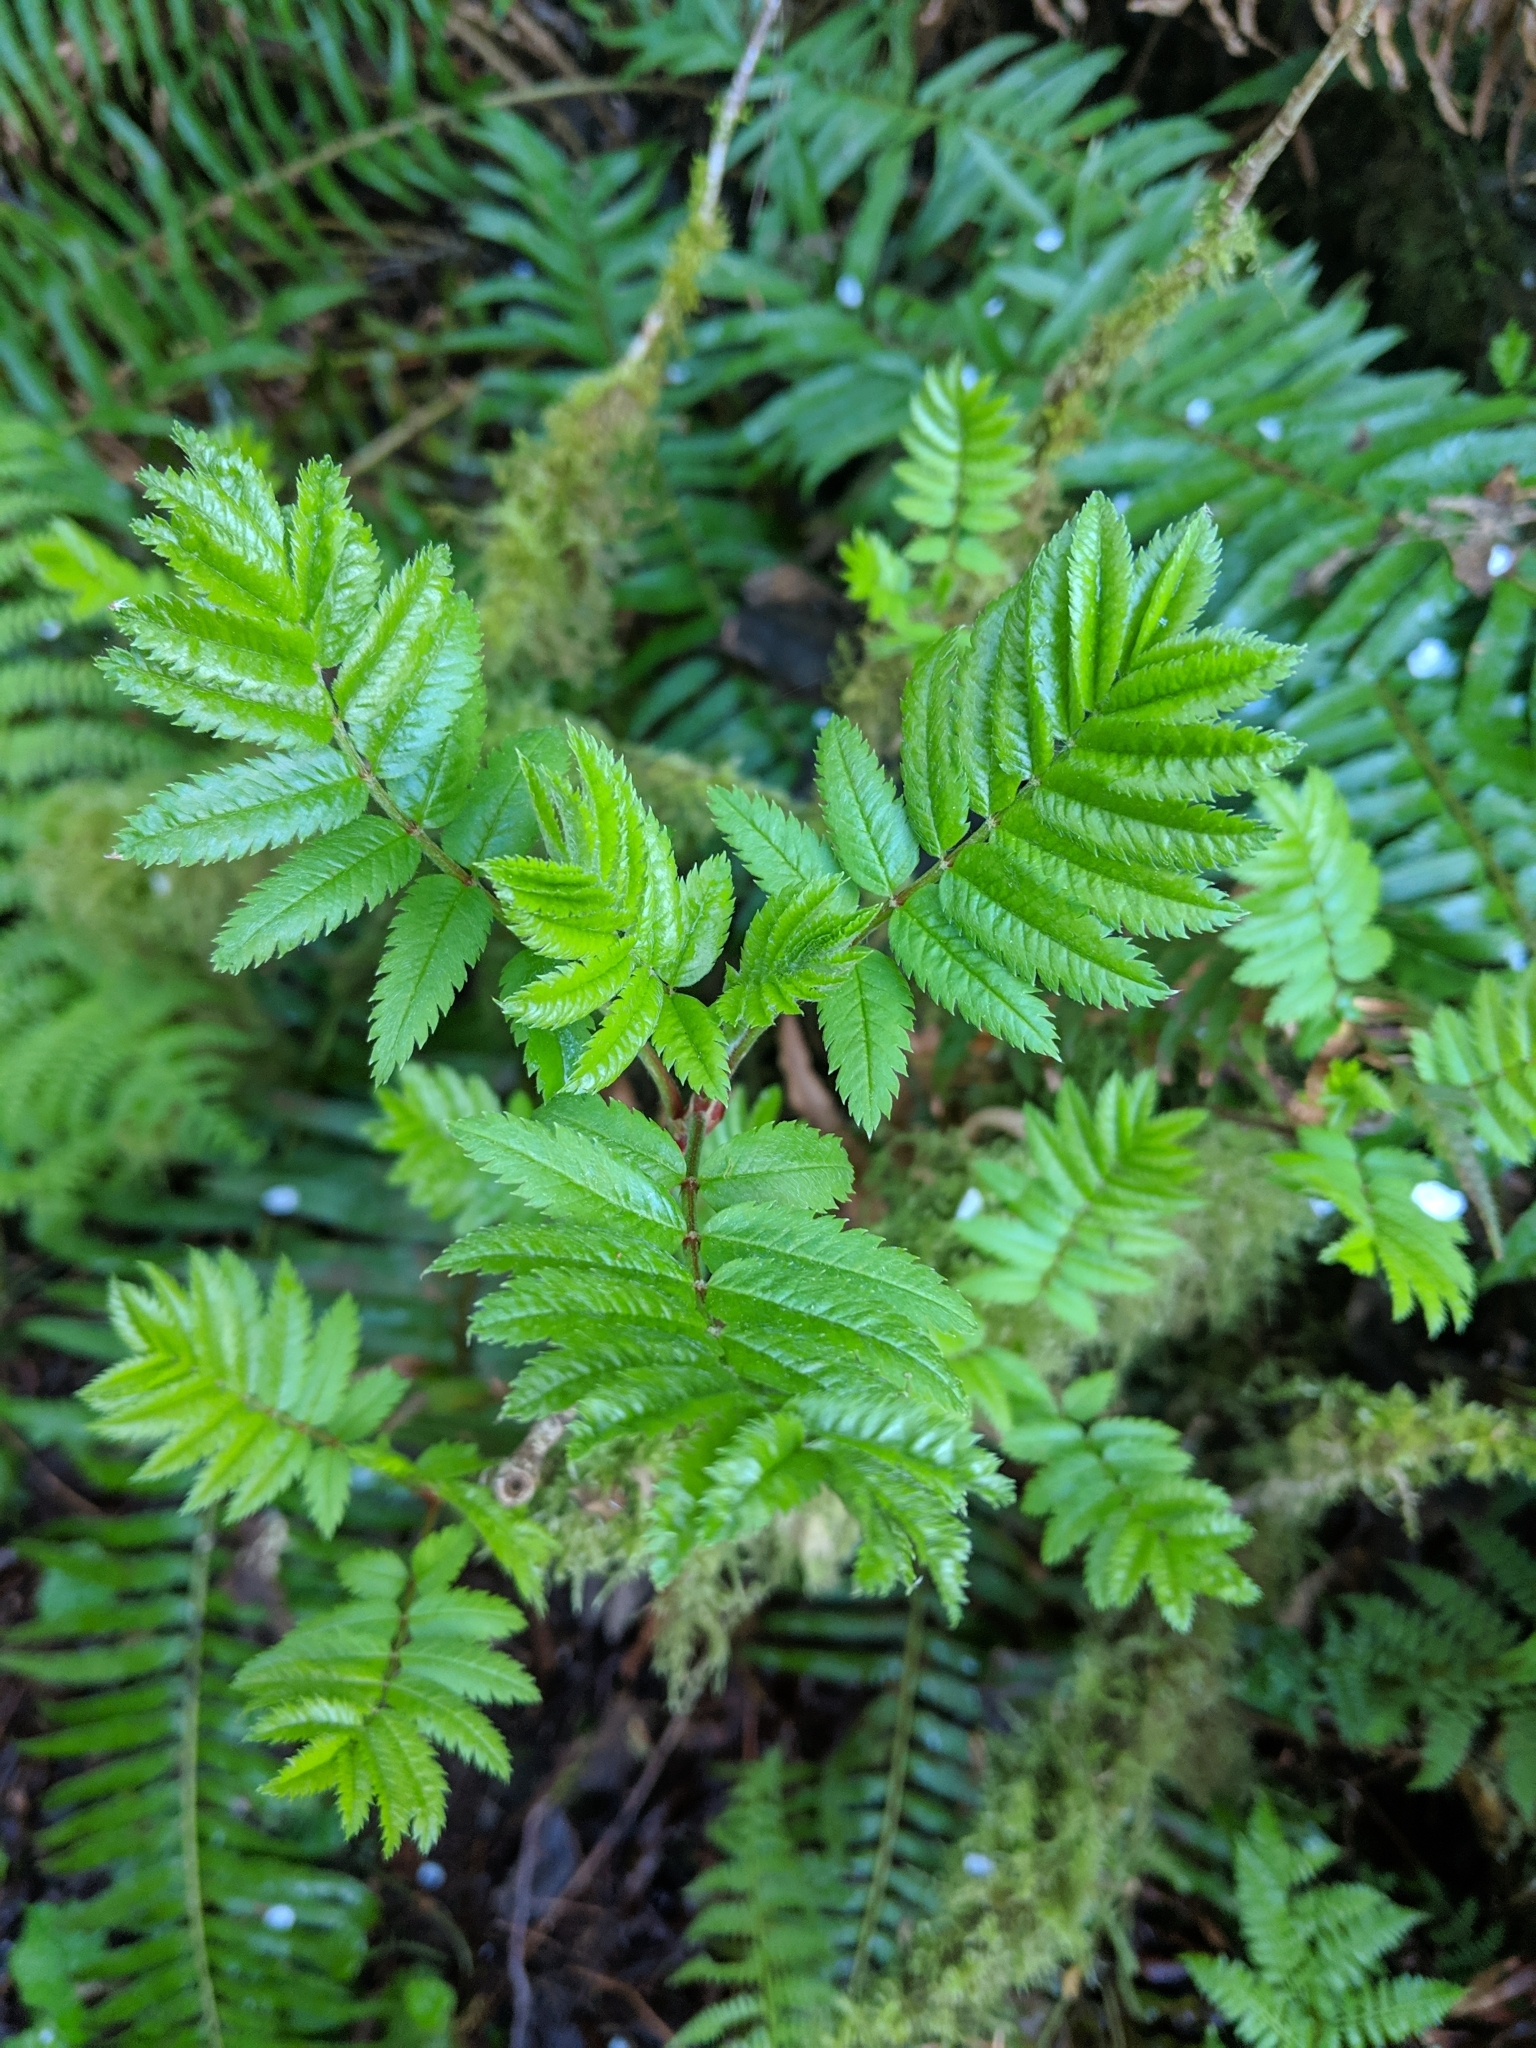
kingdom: Plantae
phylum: Tracheophyta
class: Magnoliopsida
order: Rosales
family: Rosaceae
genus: Sorbus
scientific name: Sorbus aucuparia
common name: Rowan
